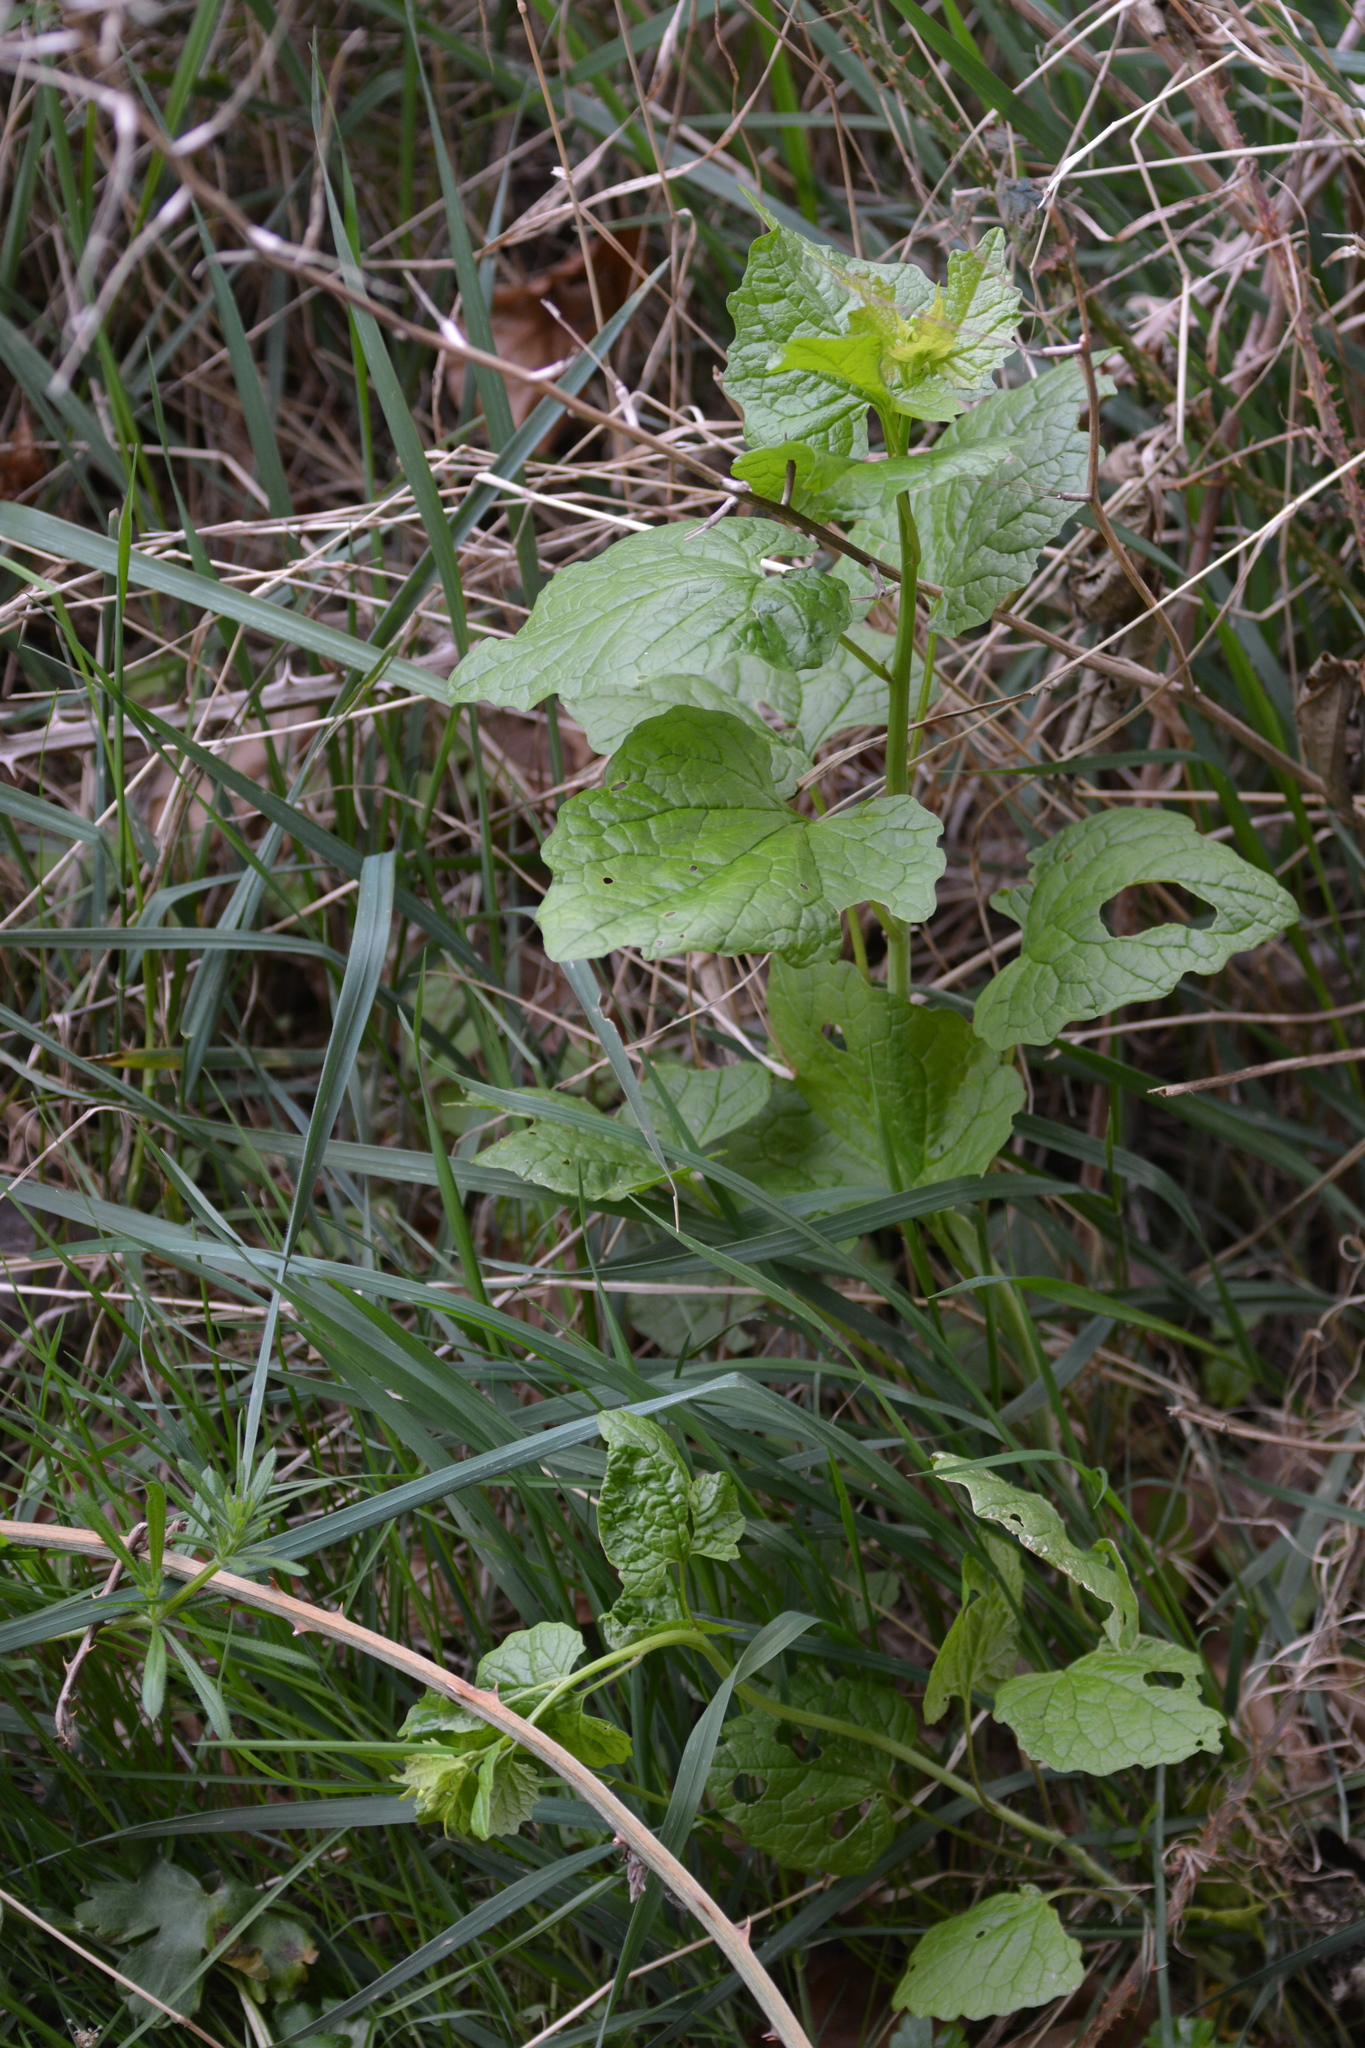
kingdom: Plantae
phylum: Tracheophyta
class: Magnoliopsida
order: Brassicales
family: Brassicaceae
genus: Alliaria
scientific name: Alliaria petiolata
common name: Garlic mustard
